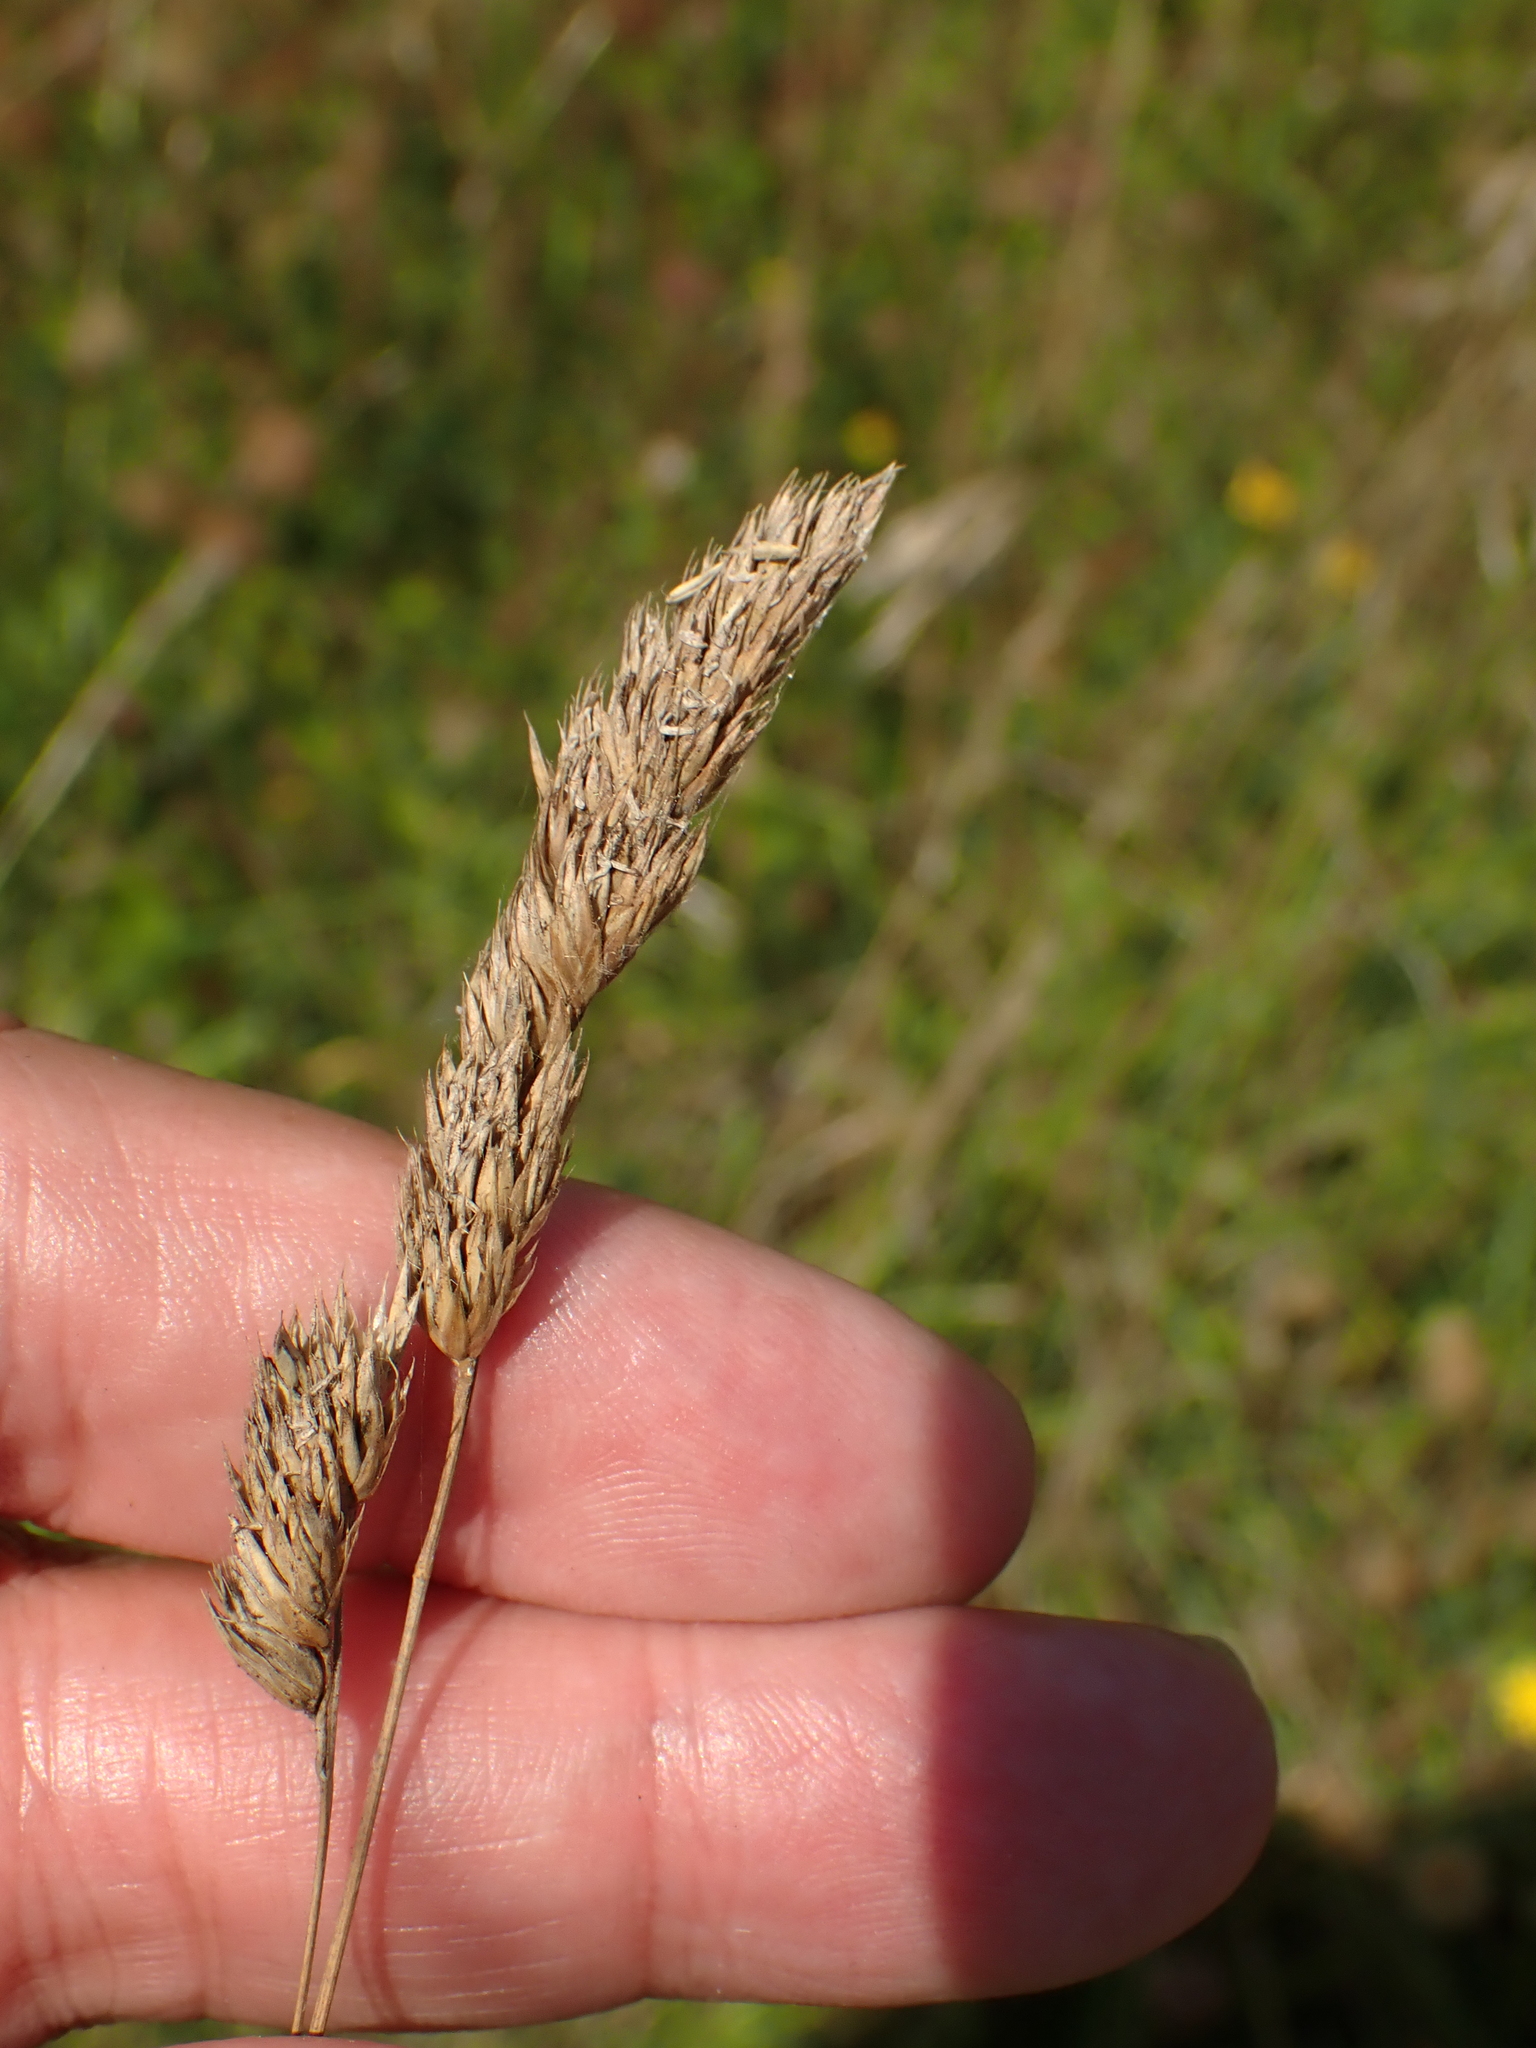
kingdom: Plantae
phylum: Tracheophyta
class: Liliopsida
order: Poales
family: Poaceae
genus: Dactylis
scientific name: Dactylis glomerata
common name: Orchardgrass
